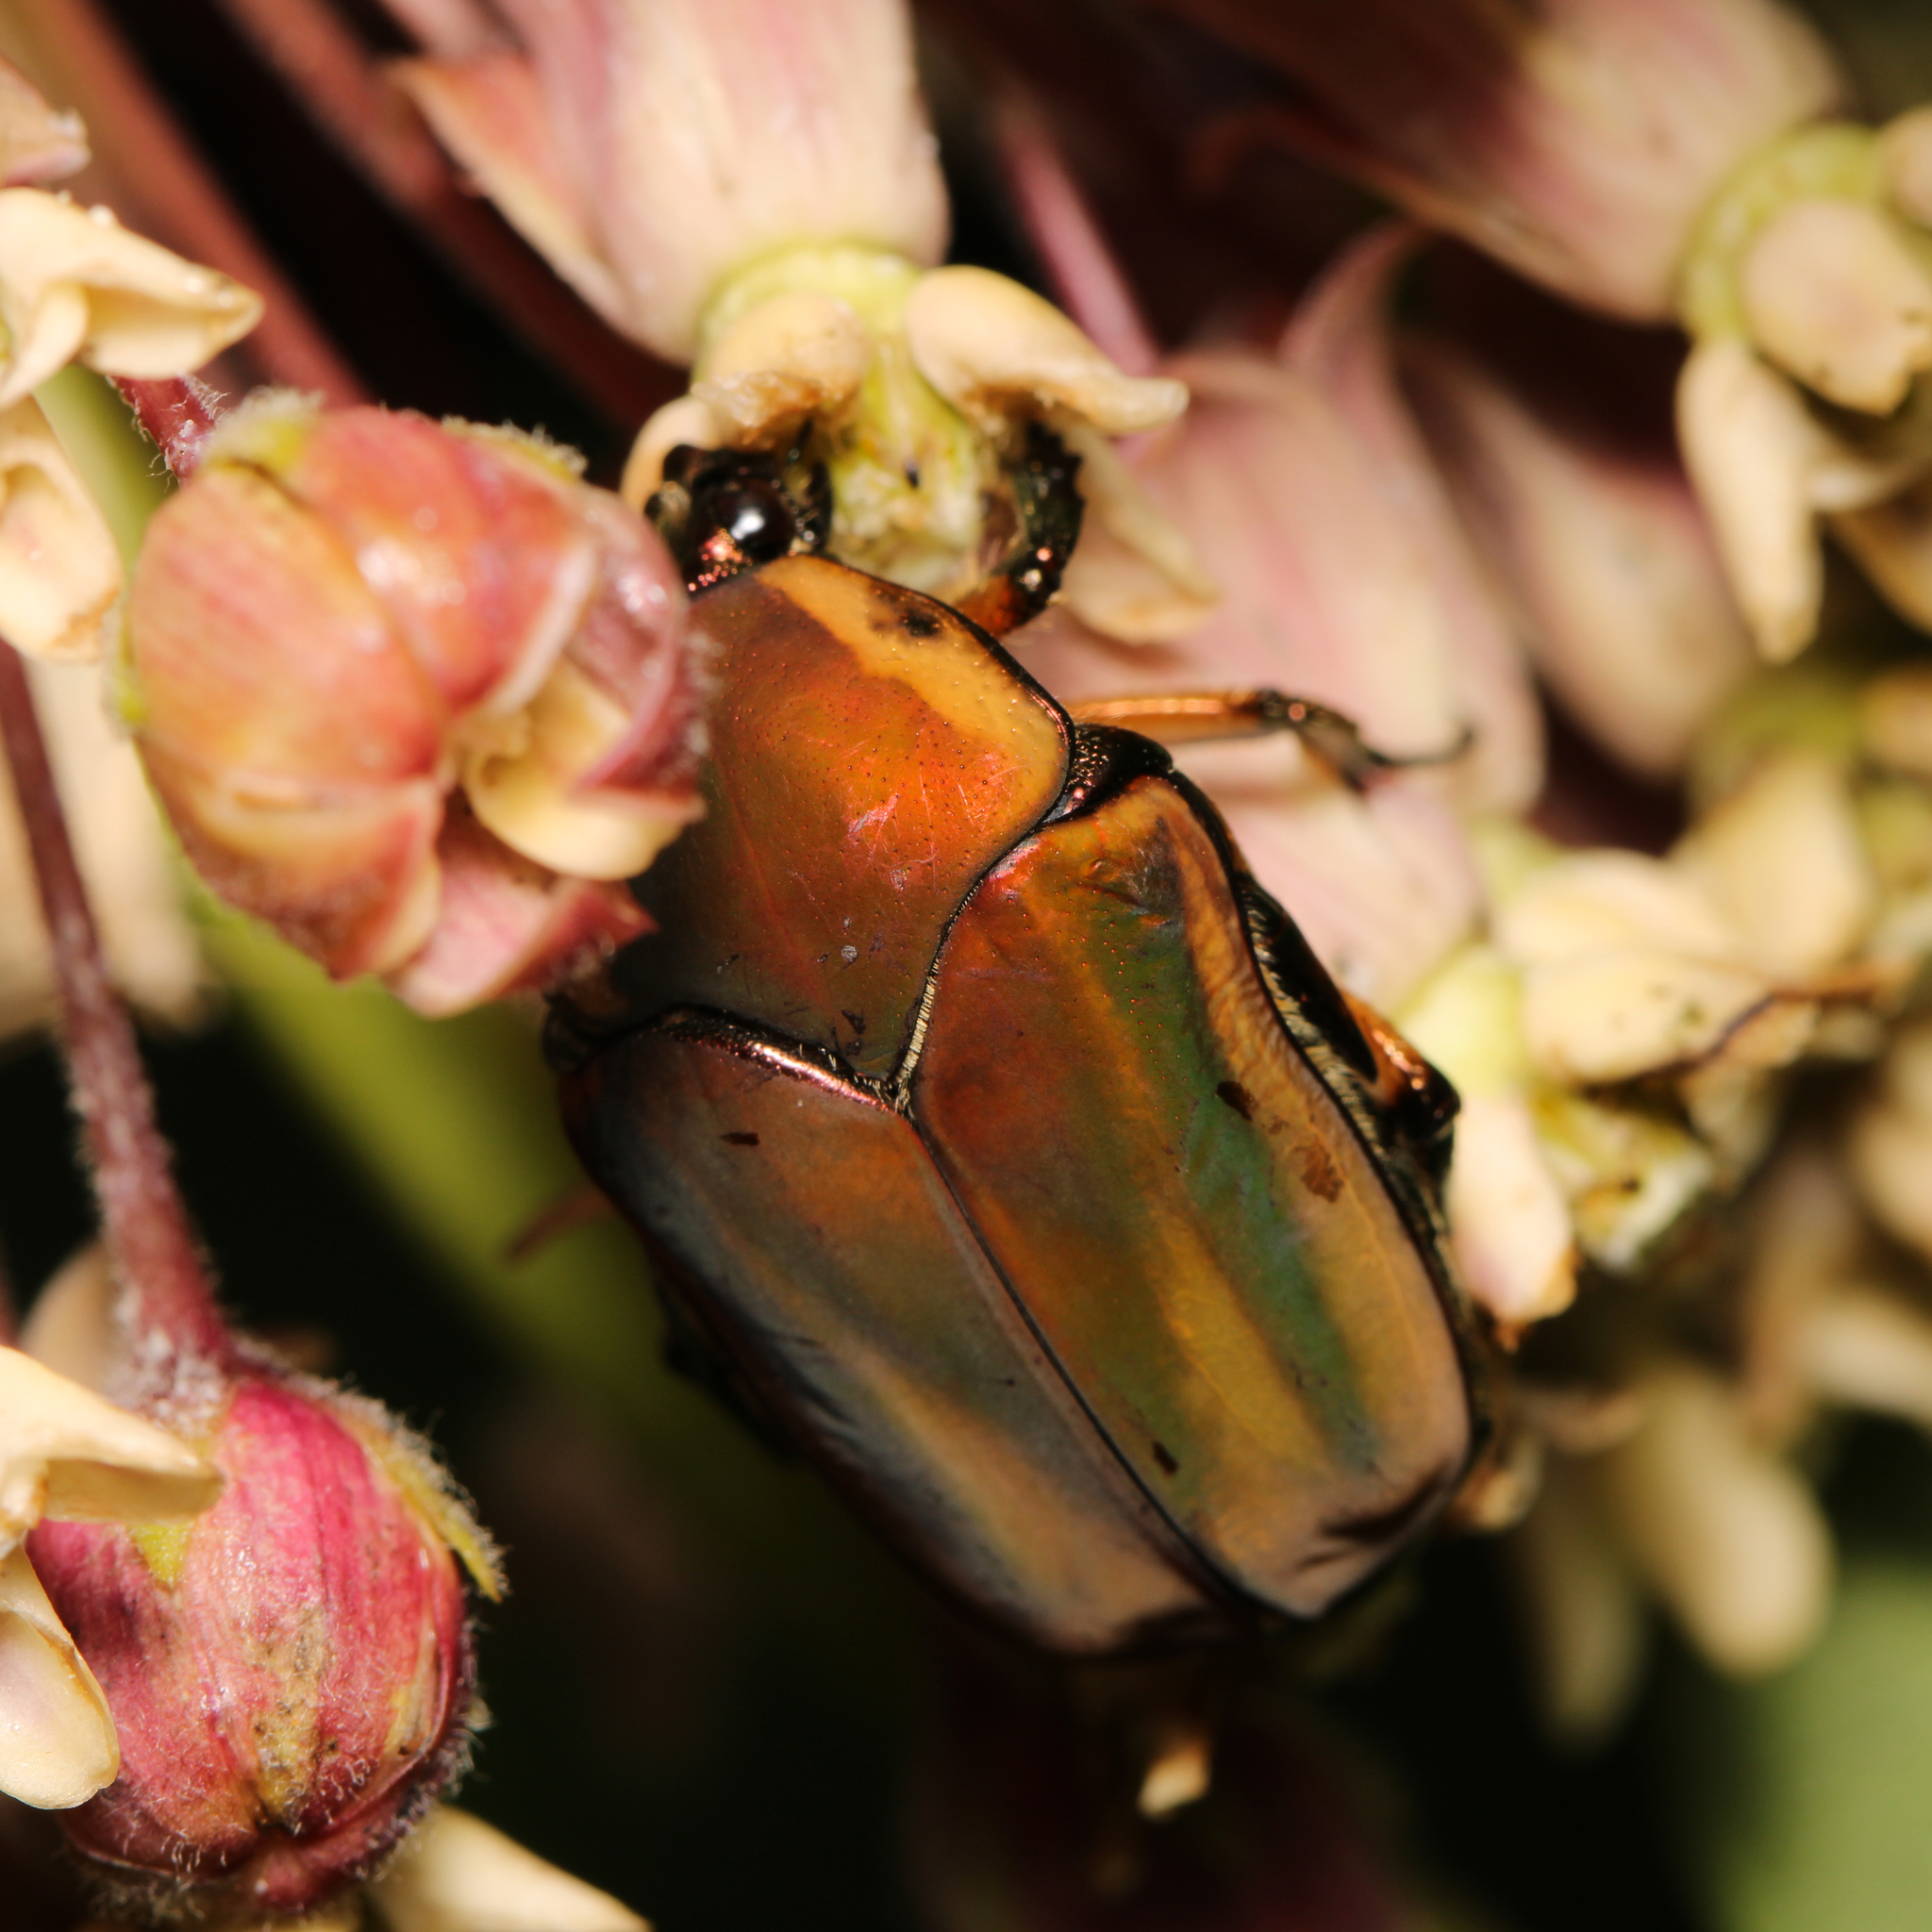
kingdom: Animalia
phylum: Arthropoda
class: Insecta
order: Coleoptera
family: Scarabaeidae
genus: Cotinis
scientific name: Cotinis nitida
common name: Common green june beetle
